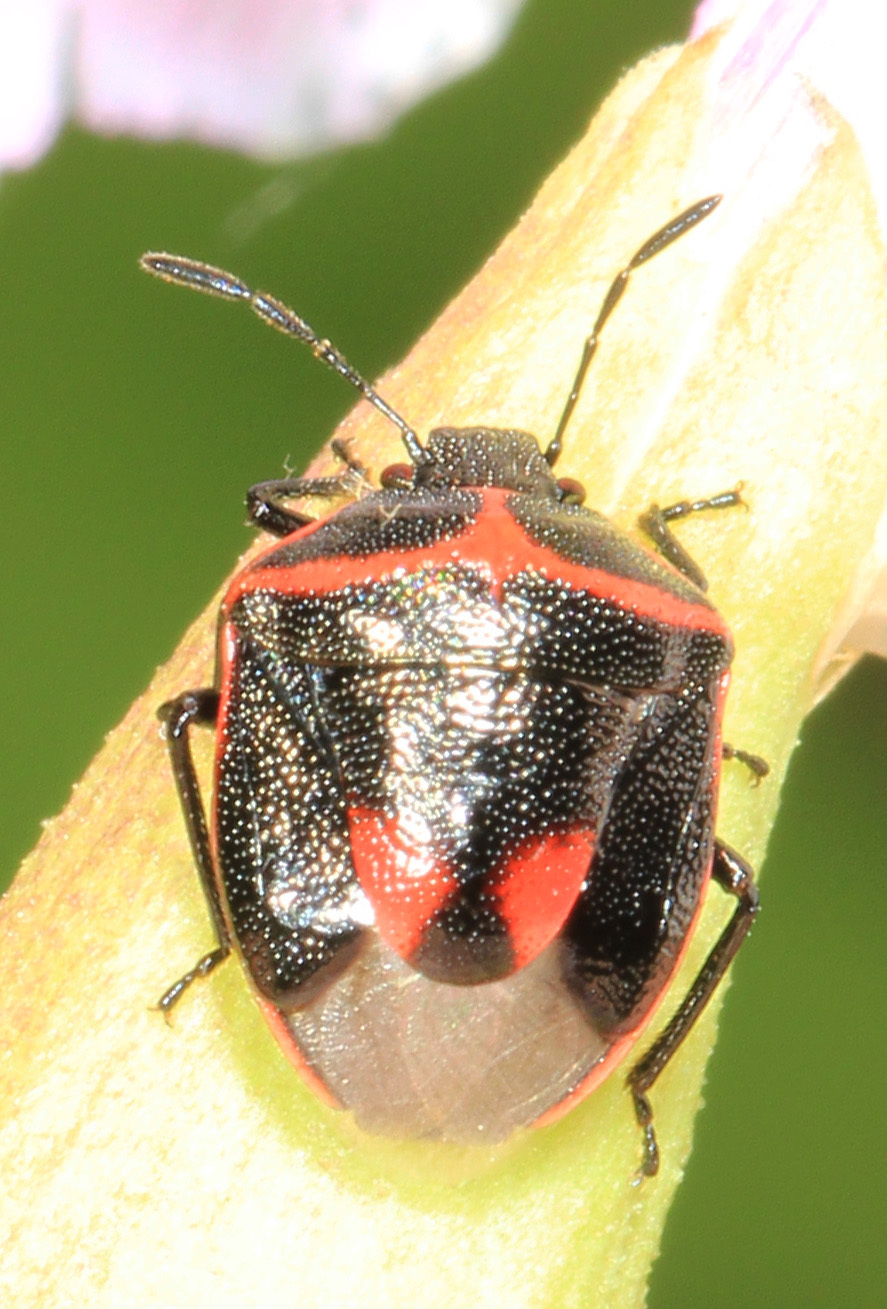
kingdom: Animalia
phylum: Arthropoda
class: Insecta
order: Hemiptera
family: Pentatomidae
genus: Cosmopepla
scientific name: Cosmopepla lintneriana
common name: Twice-stabbed stink bug
